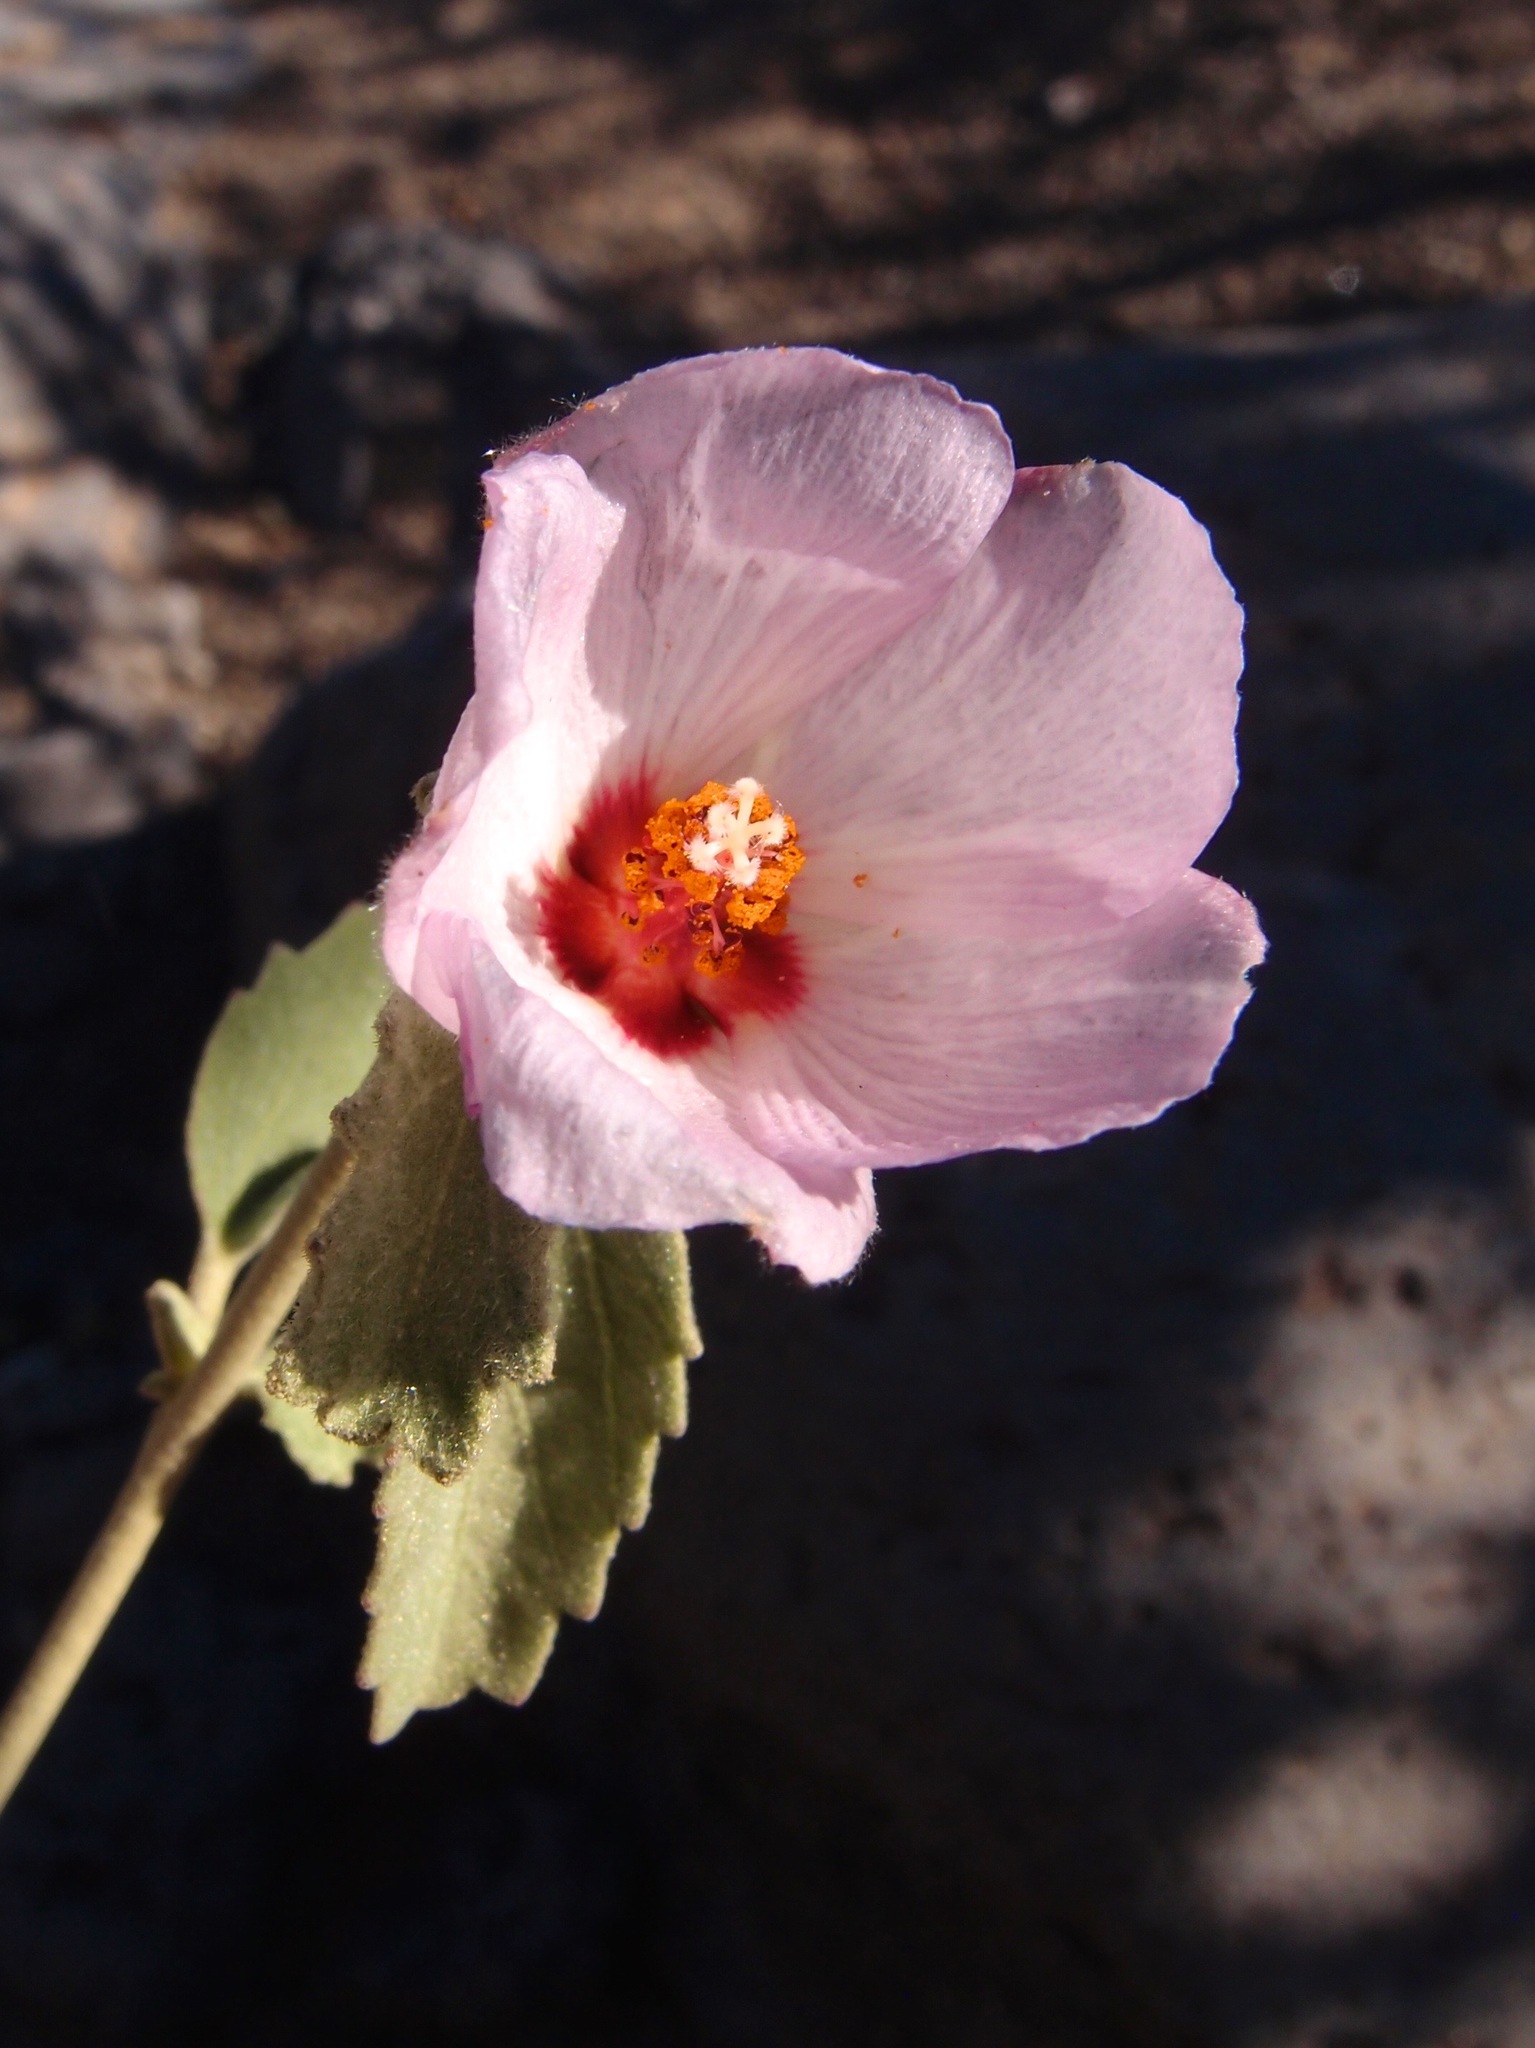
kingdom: Plantae
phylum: Tracheophyta
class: Magnoliopsida
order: Malvales
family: Malvaceae
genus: Hibiscus
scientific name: Hibiscus denudatus
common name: Paleface
